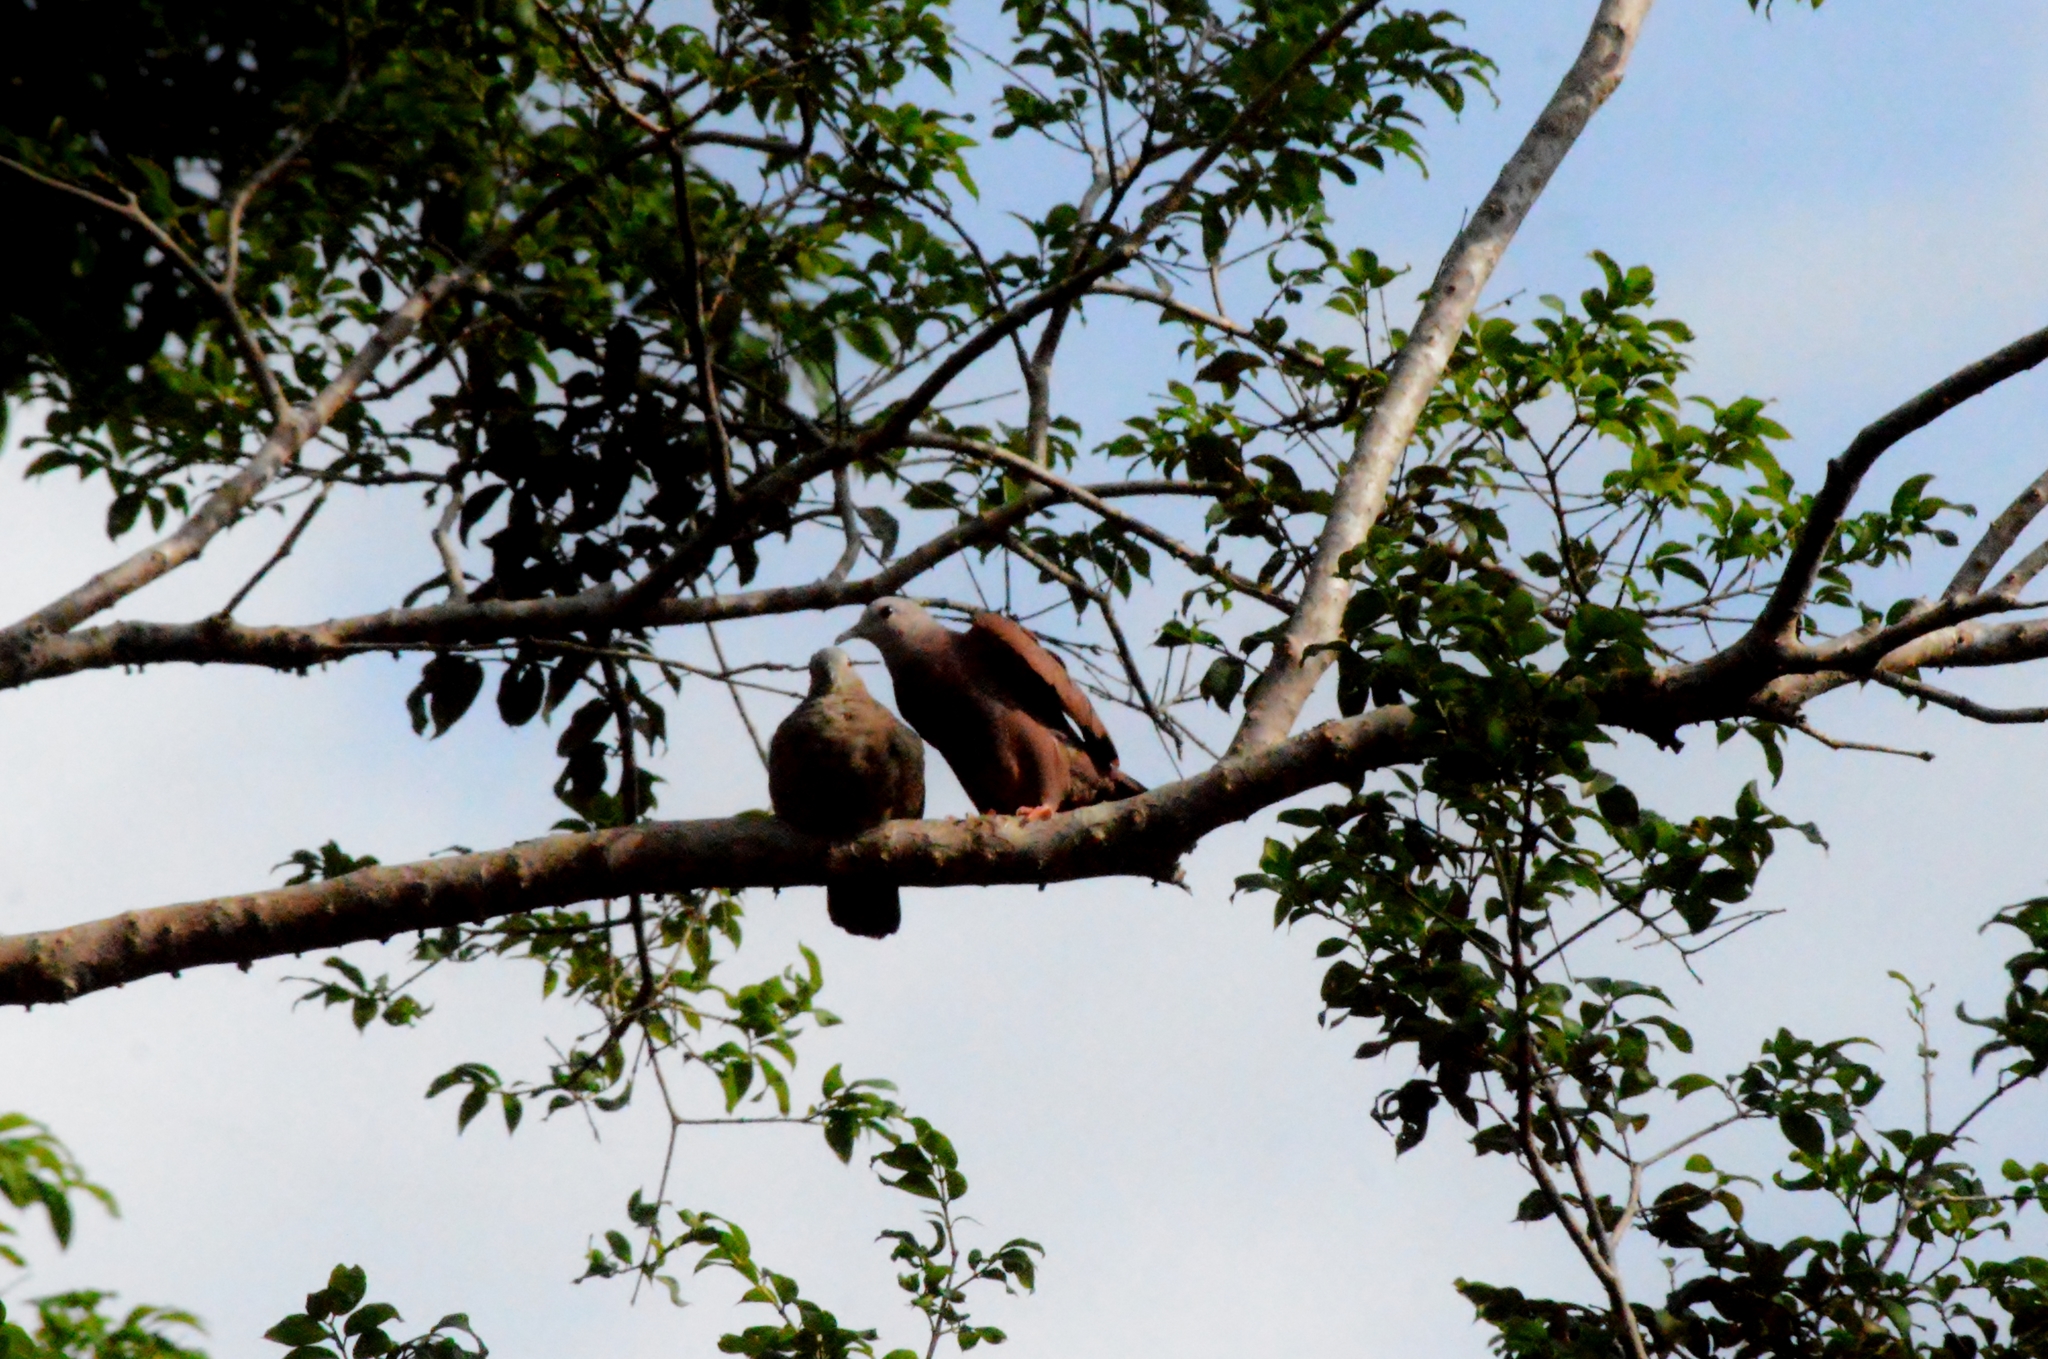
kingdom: Animalia
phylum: Chordata
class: Aves
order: Columbiformes
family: Columbidae
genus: Columbina
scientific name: Columbina talpacoti
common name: Ruddy ground dove
